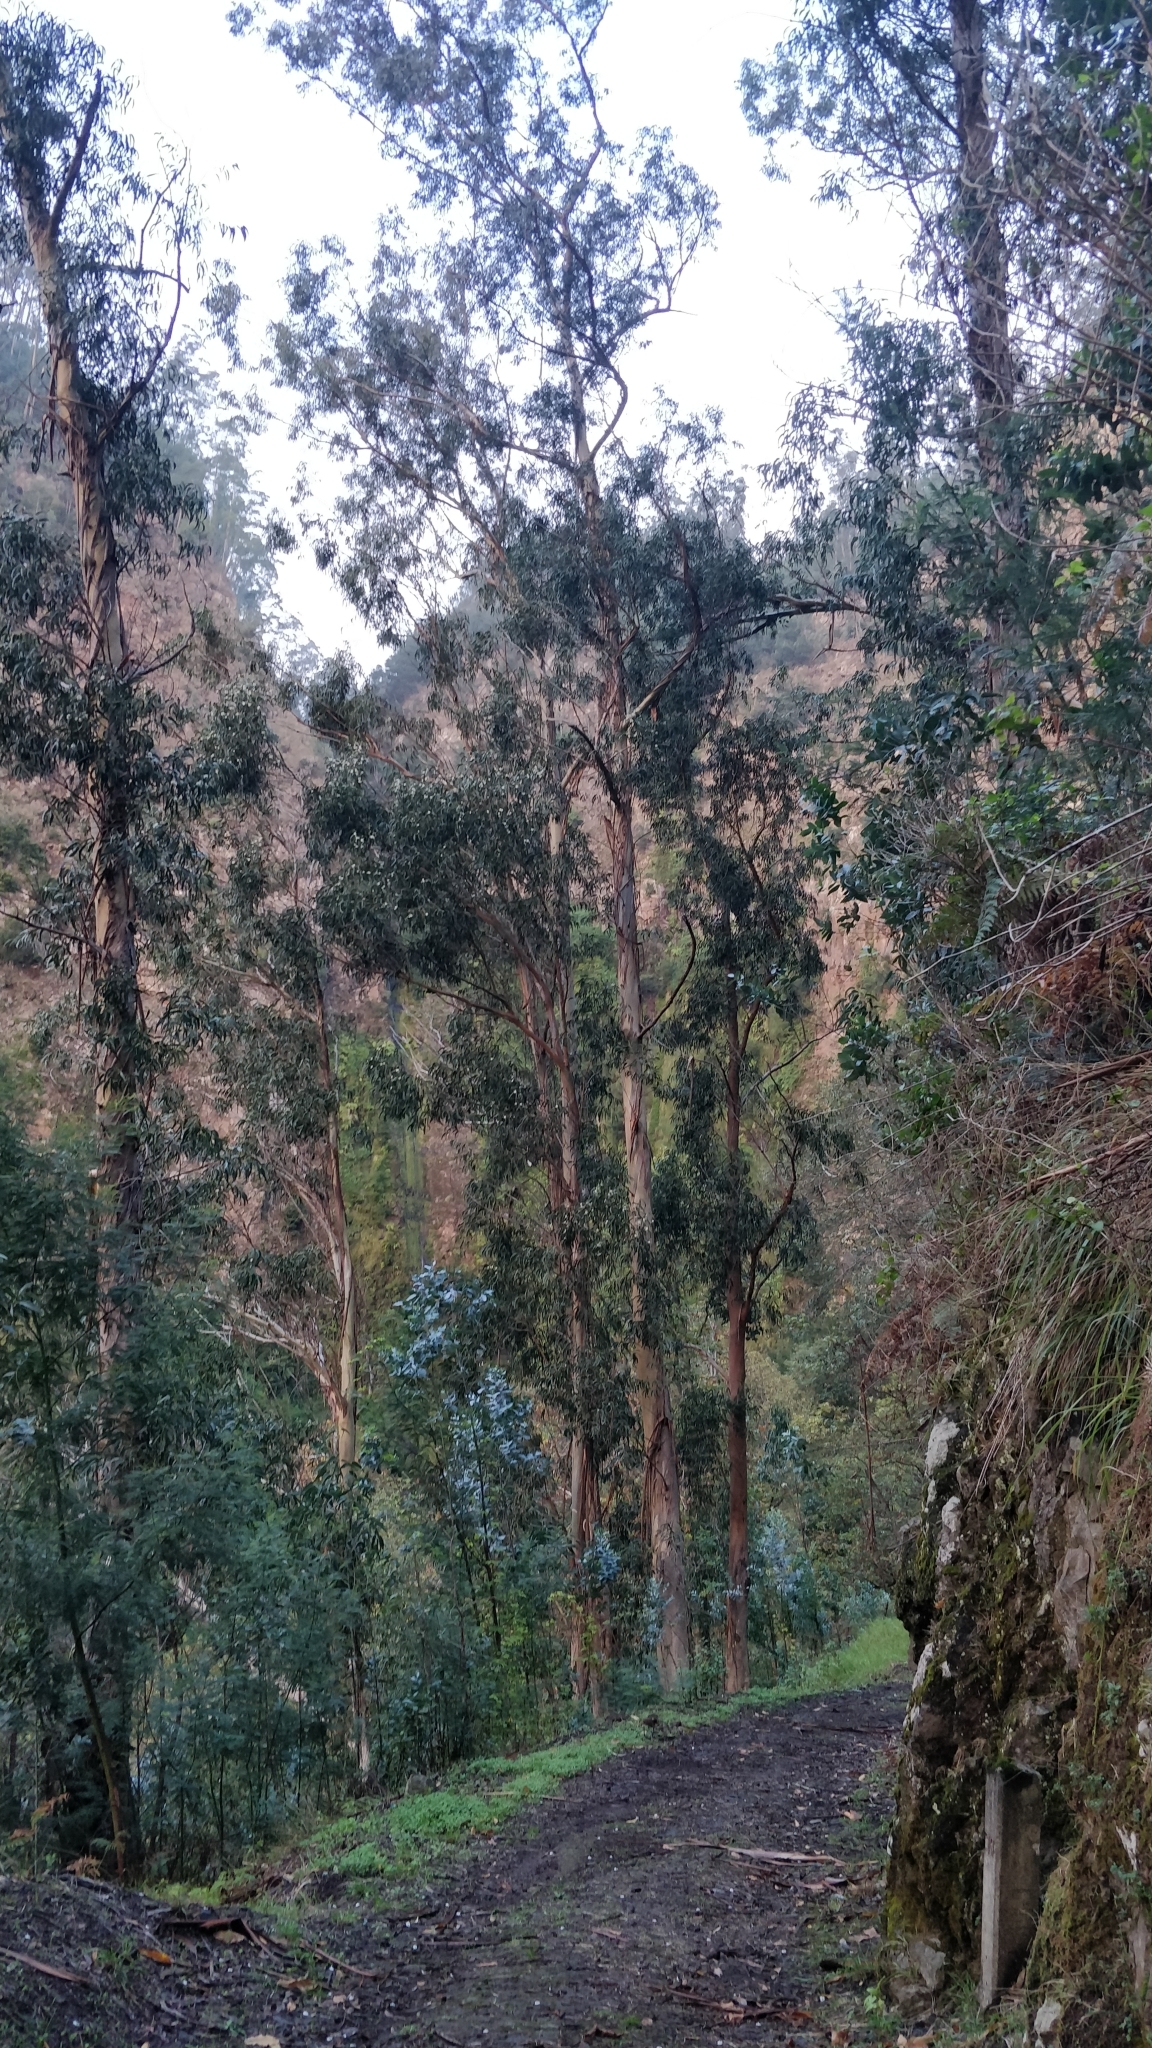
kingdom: Plantae
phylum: Tracheophyta
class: Magnoliopsida
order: Myrtales
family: Myrtaceae
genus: Eucalyptus
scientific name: Eucalyptus globulus
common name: Southern blue-gum
